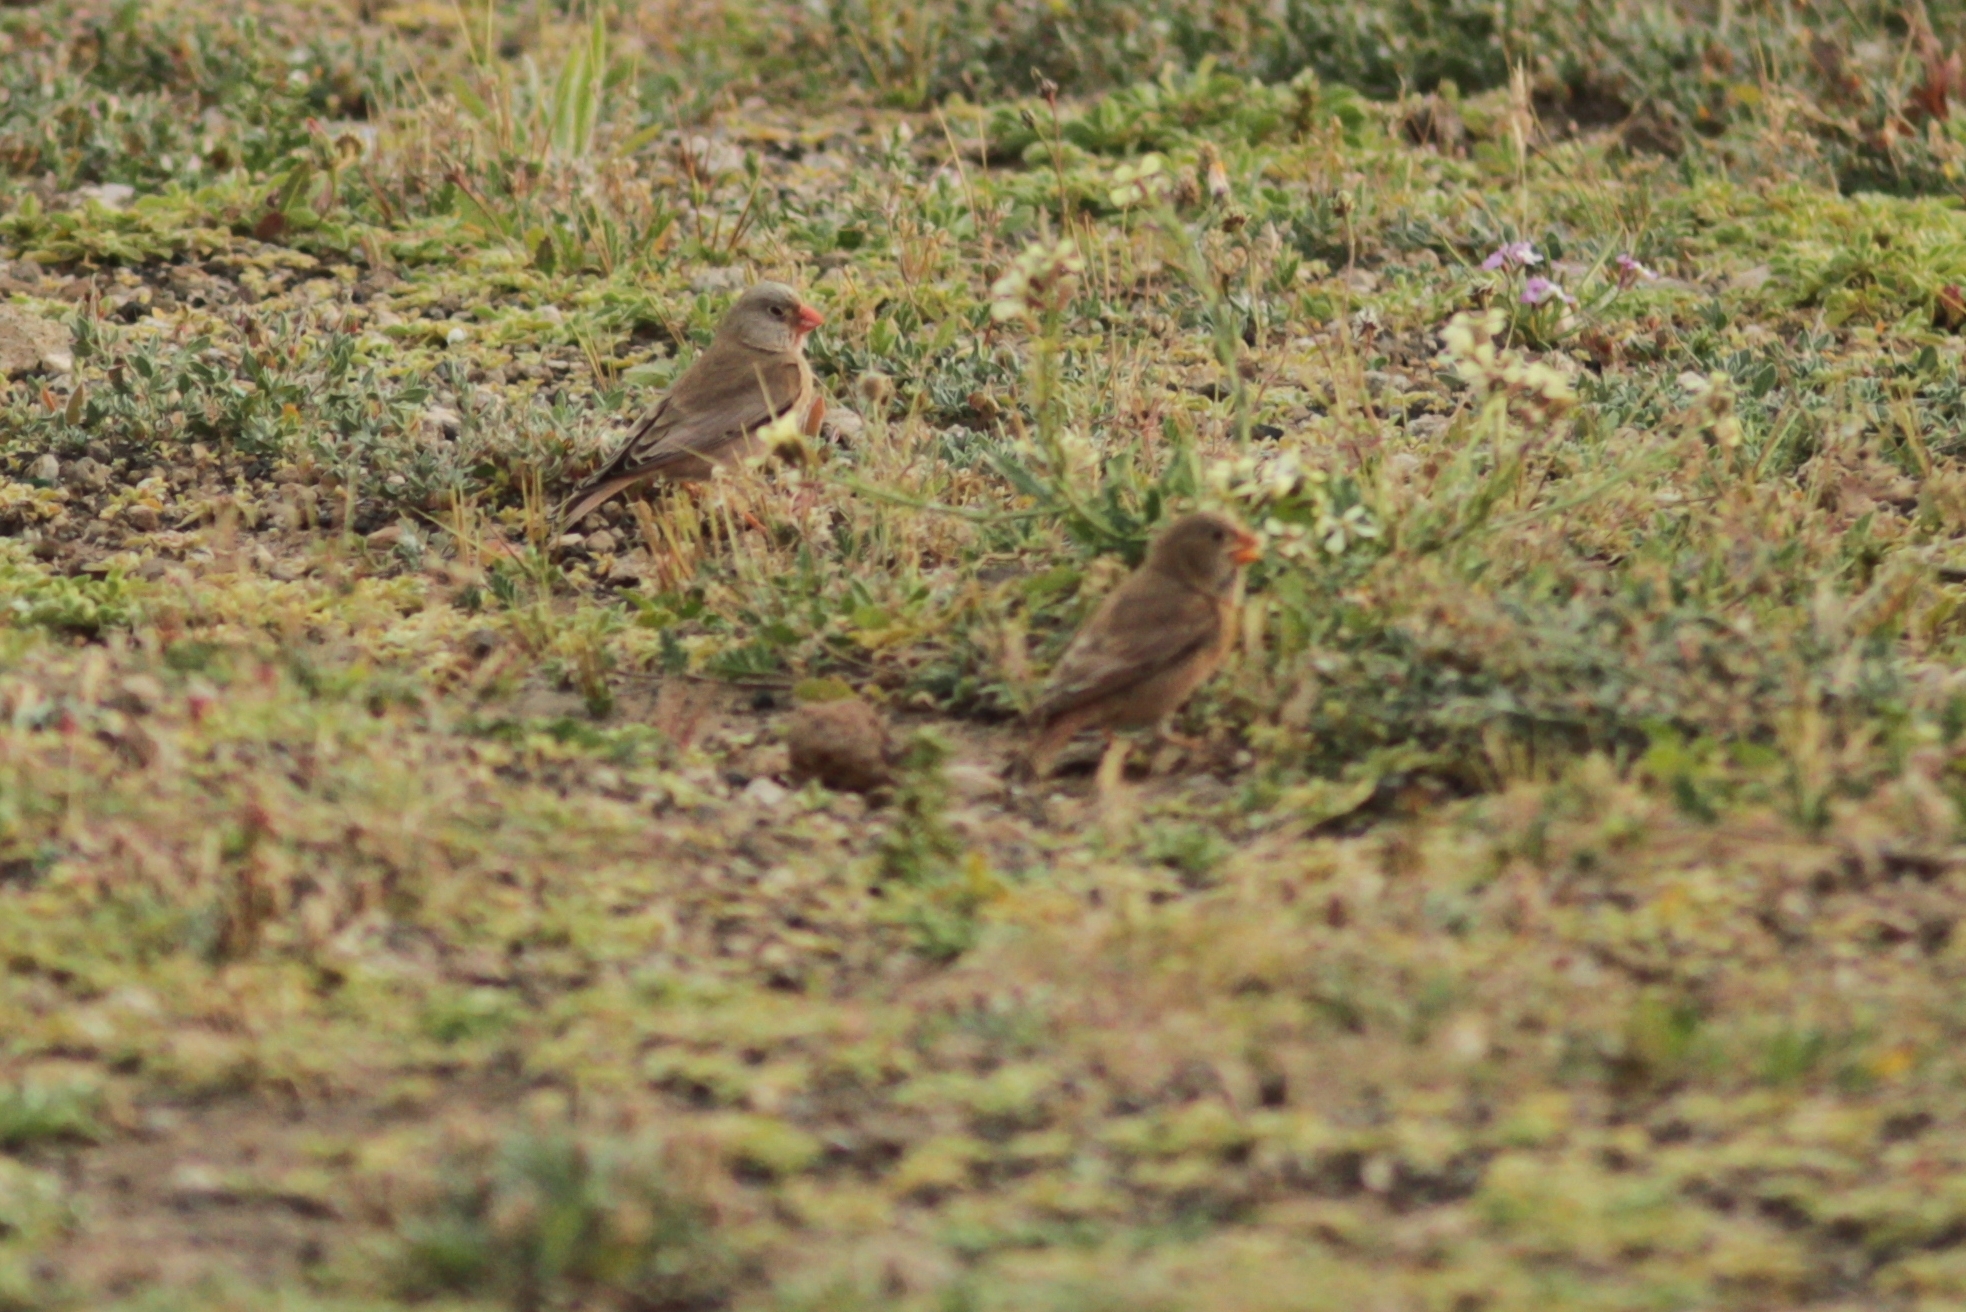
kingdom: Animalia
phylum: Chordata
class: Aves
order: Passeriformes
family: Fringillidae
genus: Bucanetes
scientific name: Bucanetes githagineus
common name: Trumpeter finch
